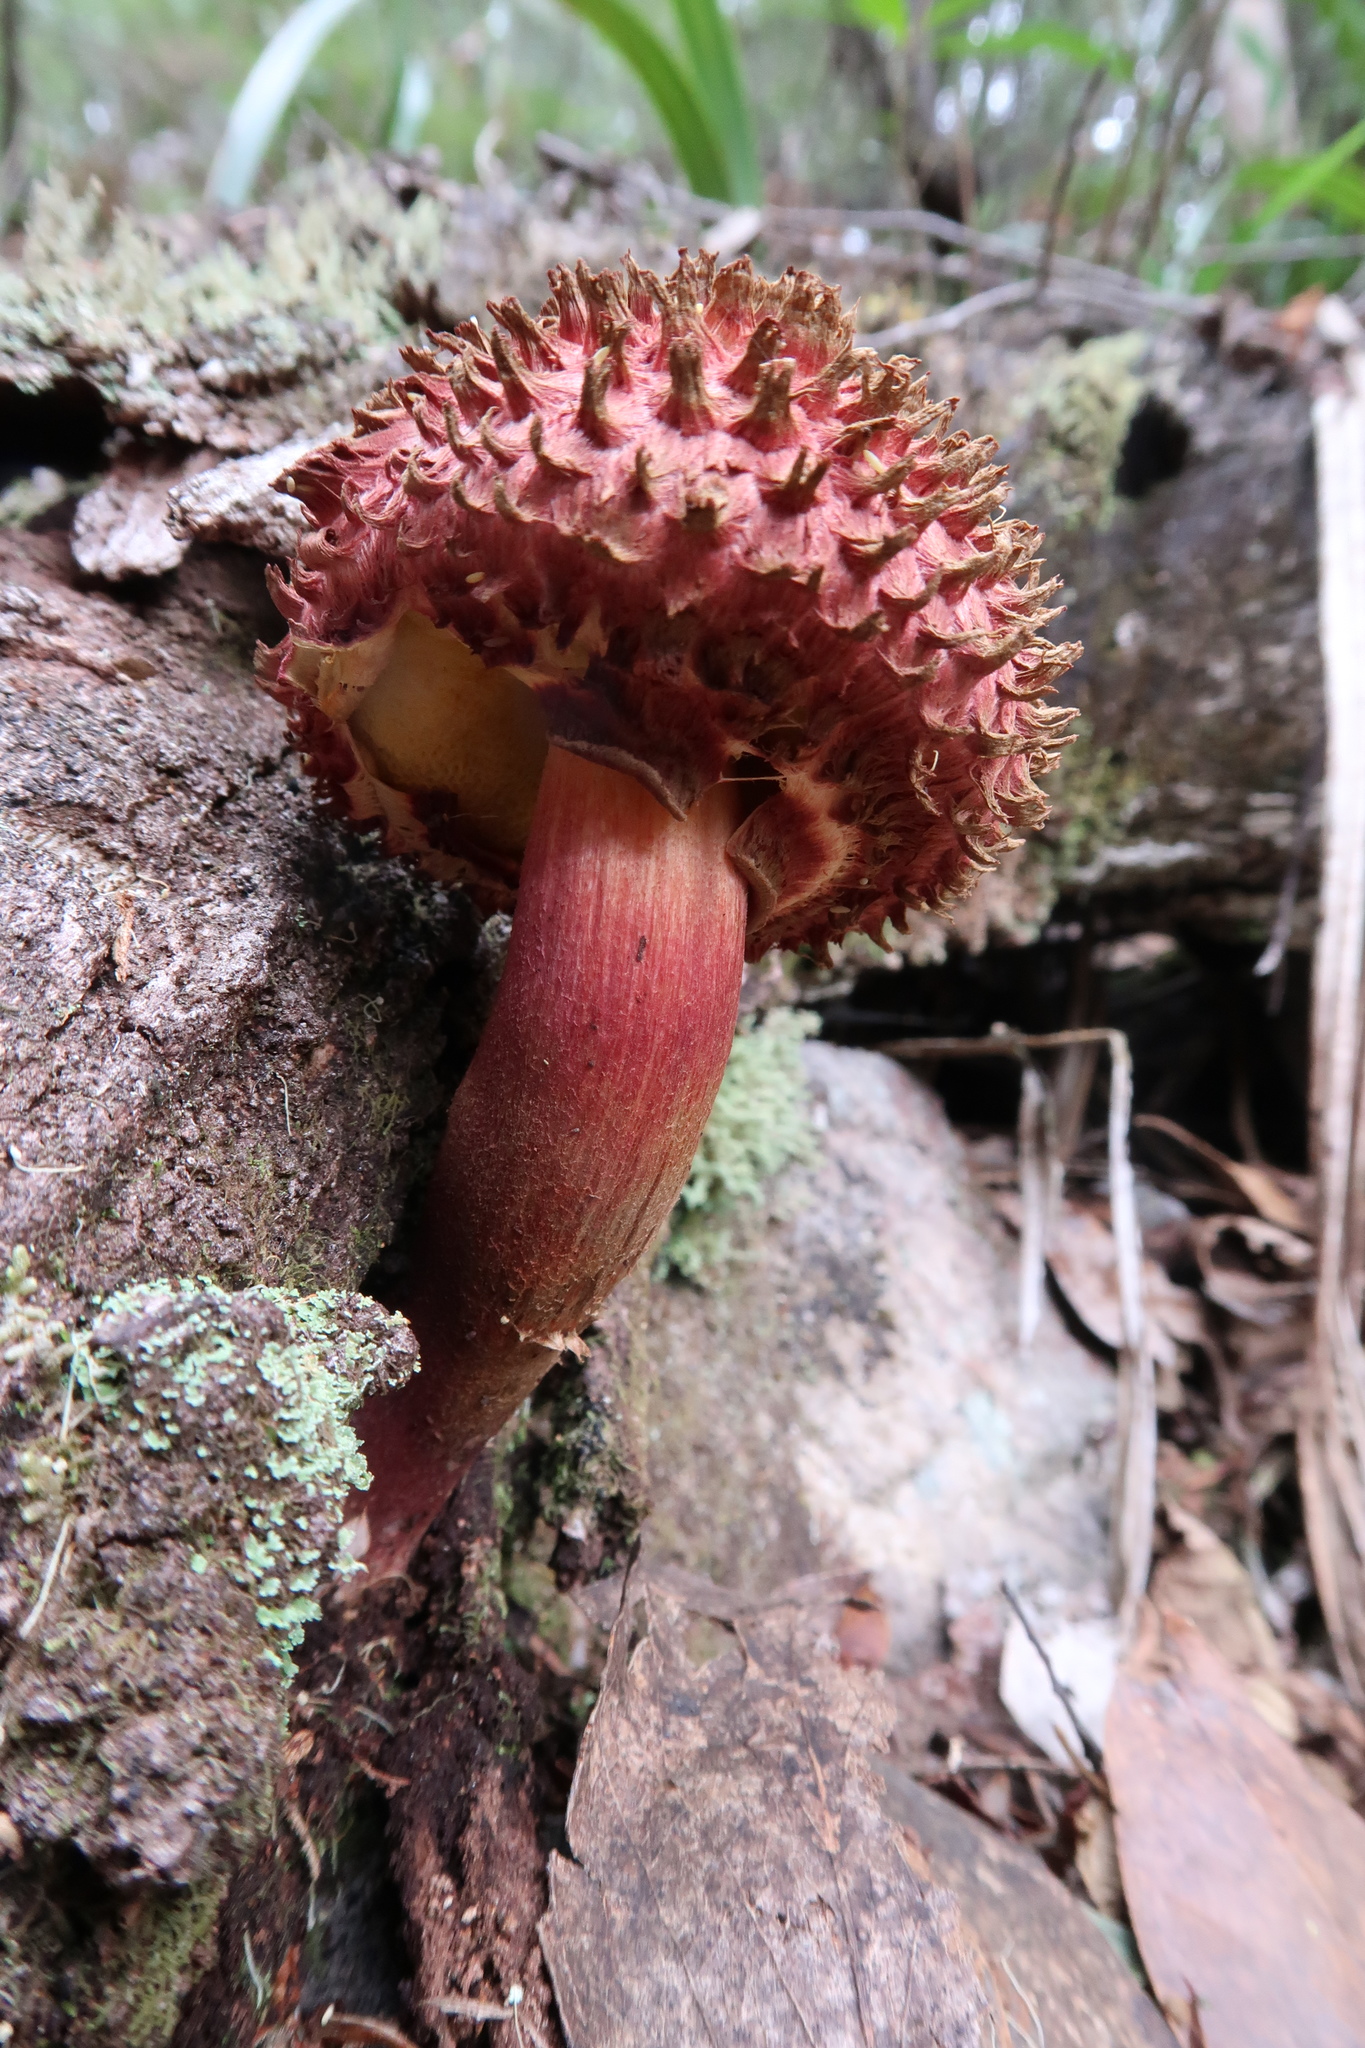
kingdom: Fungi
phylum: Basidiomycota
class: Agaricomycetes
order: Boletales
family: Boletaceae
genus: Boletellus
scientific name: Boletellus emodensis
